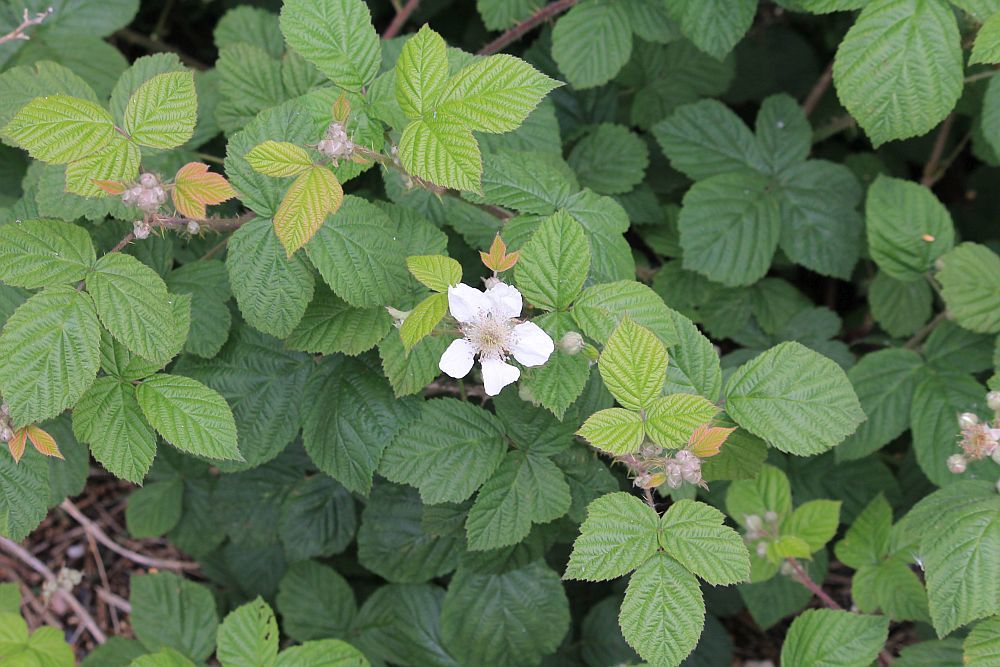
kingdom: Plantae
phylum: Tracheophyta
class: Magnoliopsida
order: Rosales
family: Rosaceae
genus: Rubus
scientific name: Rubus
